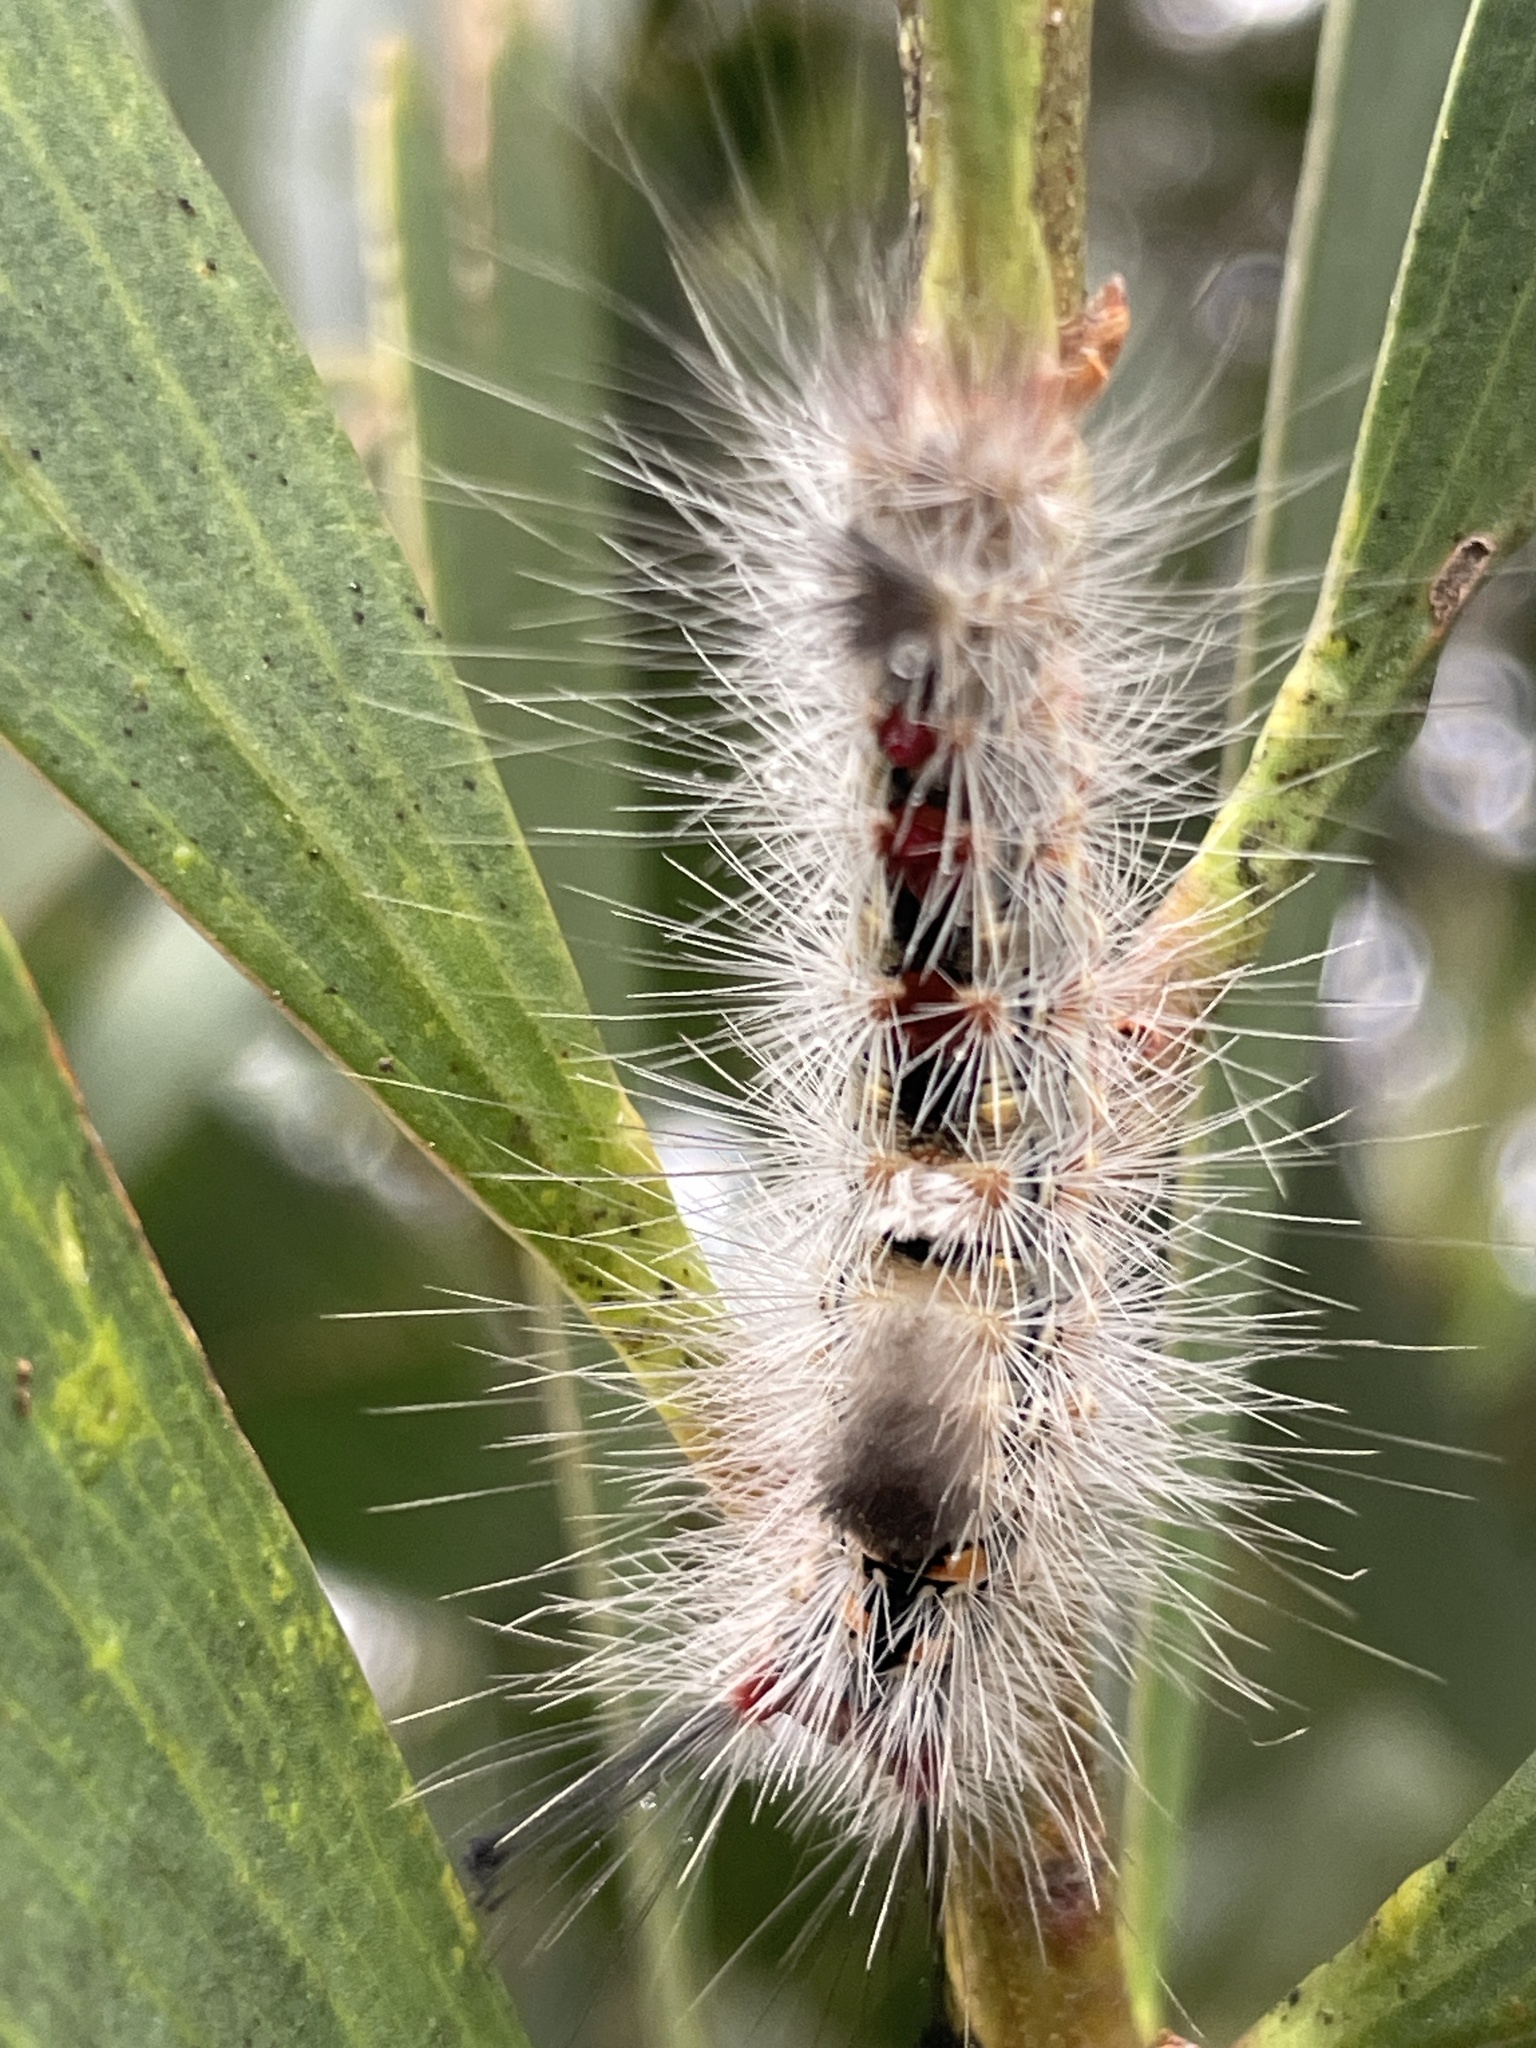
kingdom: Animalia
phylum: Arthropoda
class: Insecta
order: Lepidoptera
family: Erebidae
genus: Orgyia
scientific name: Orgyia
